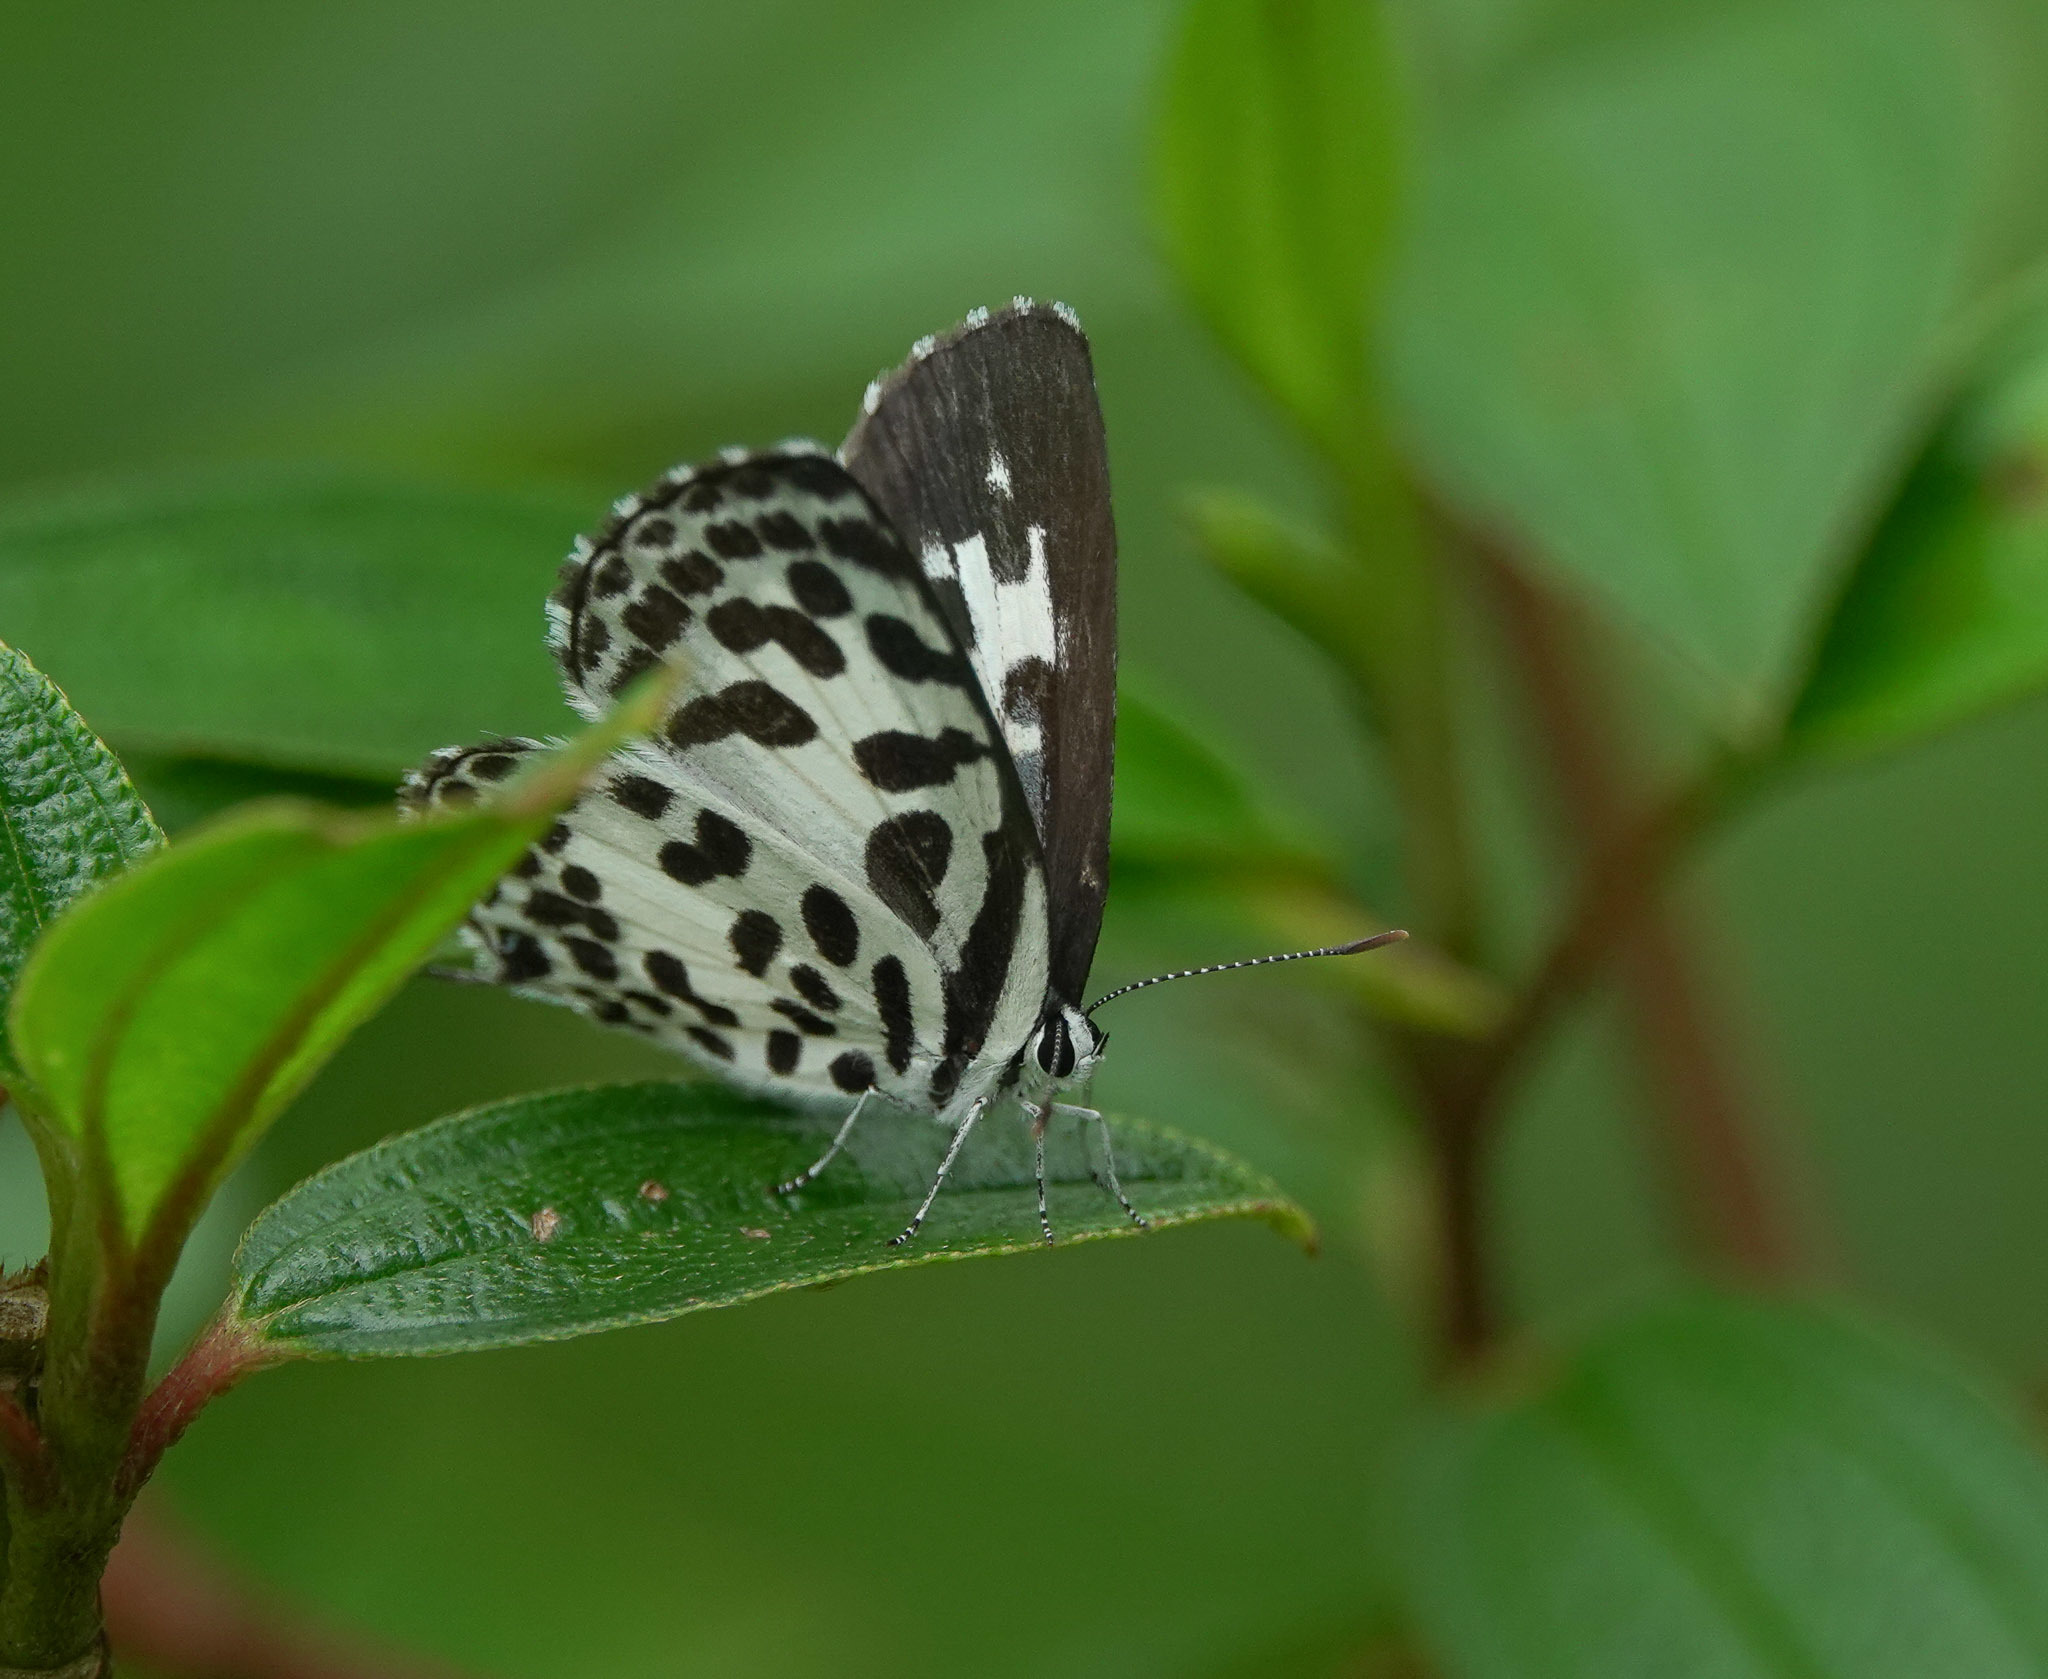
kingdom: Animalia
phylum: Arthropoda
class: Insecta
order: Lepidoptera
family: Lycaenidae
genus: Castalius
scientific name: Castalius rosimon
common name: Common pierrot
